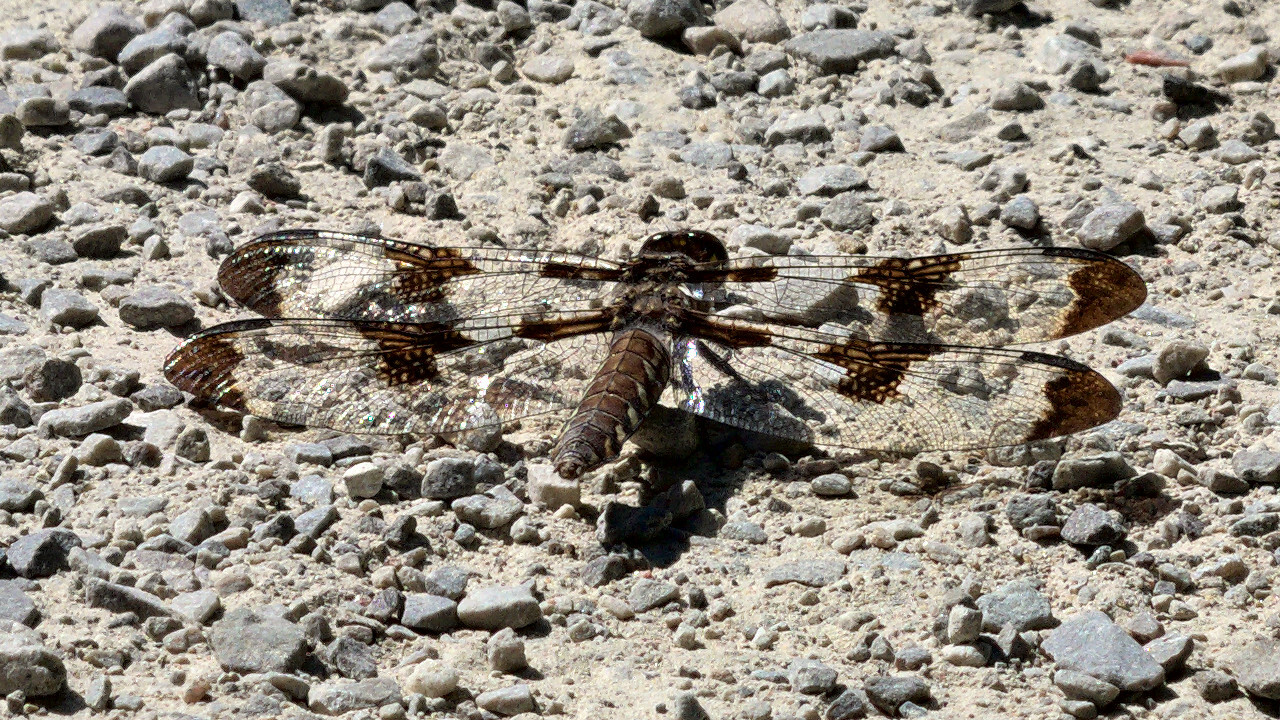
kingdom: Animalia
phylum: Arthropoda
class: Insecta
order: Odonata
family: Libellulidae
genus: Plathemis
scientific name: Plathemis lydia
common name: Common whitetail
